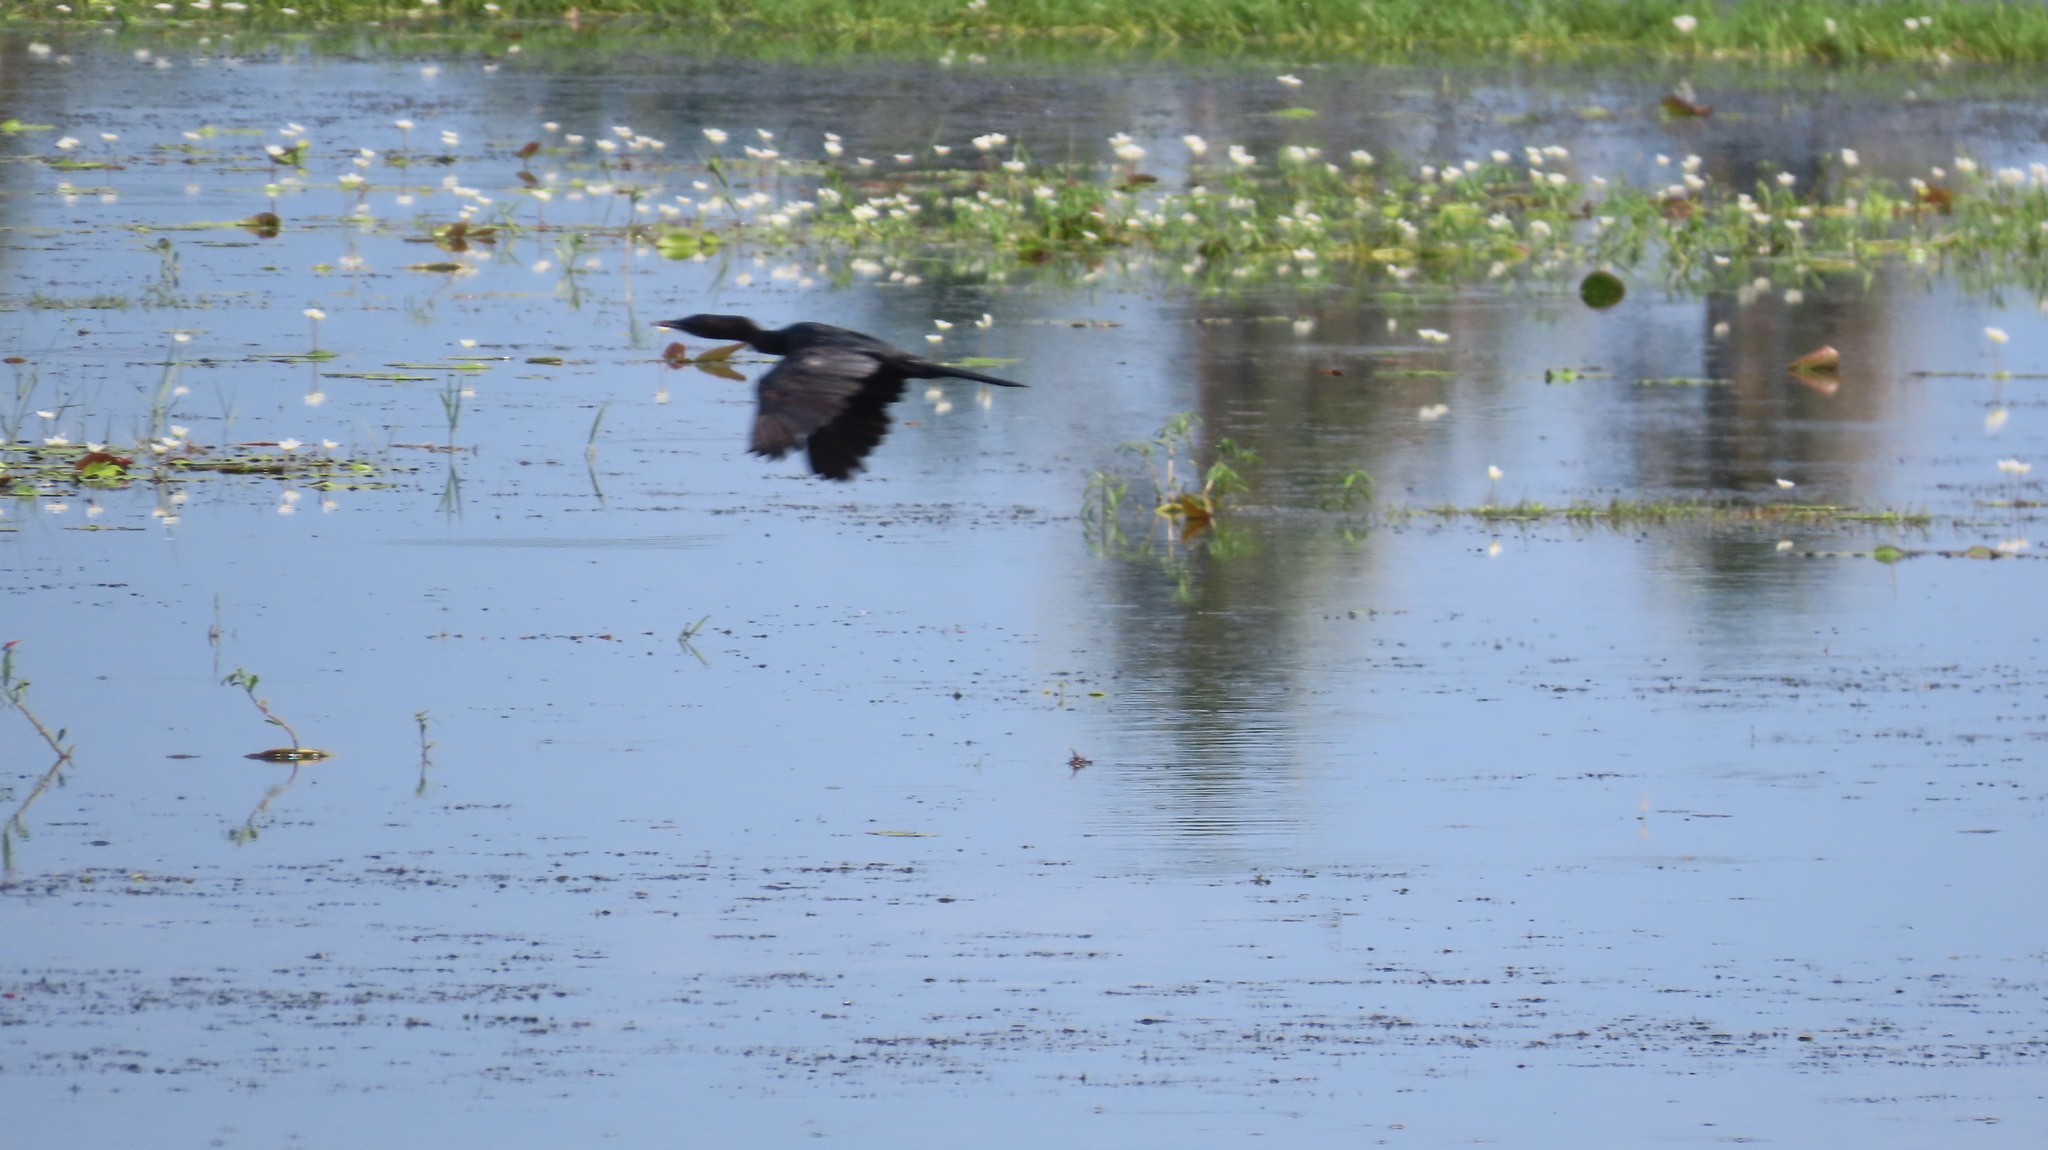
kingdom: Animalia
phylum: Chordata
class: Aves
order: Suliformes
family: Phalacrocoracidae
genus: Microcarbo
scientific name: Microcarbo niger
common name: Little cormorant
